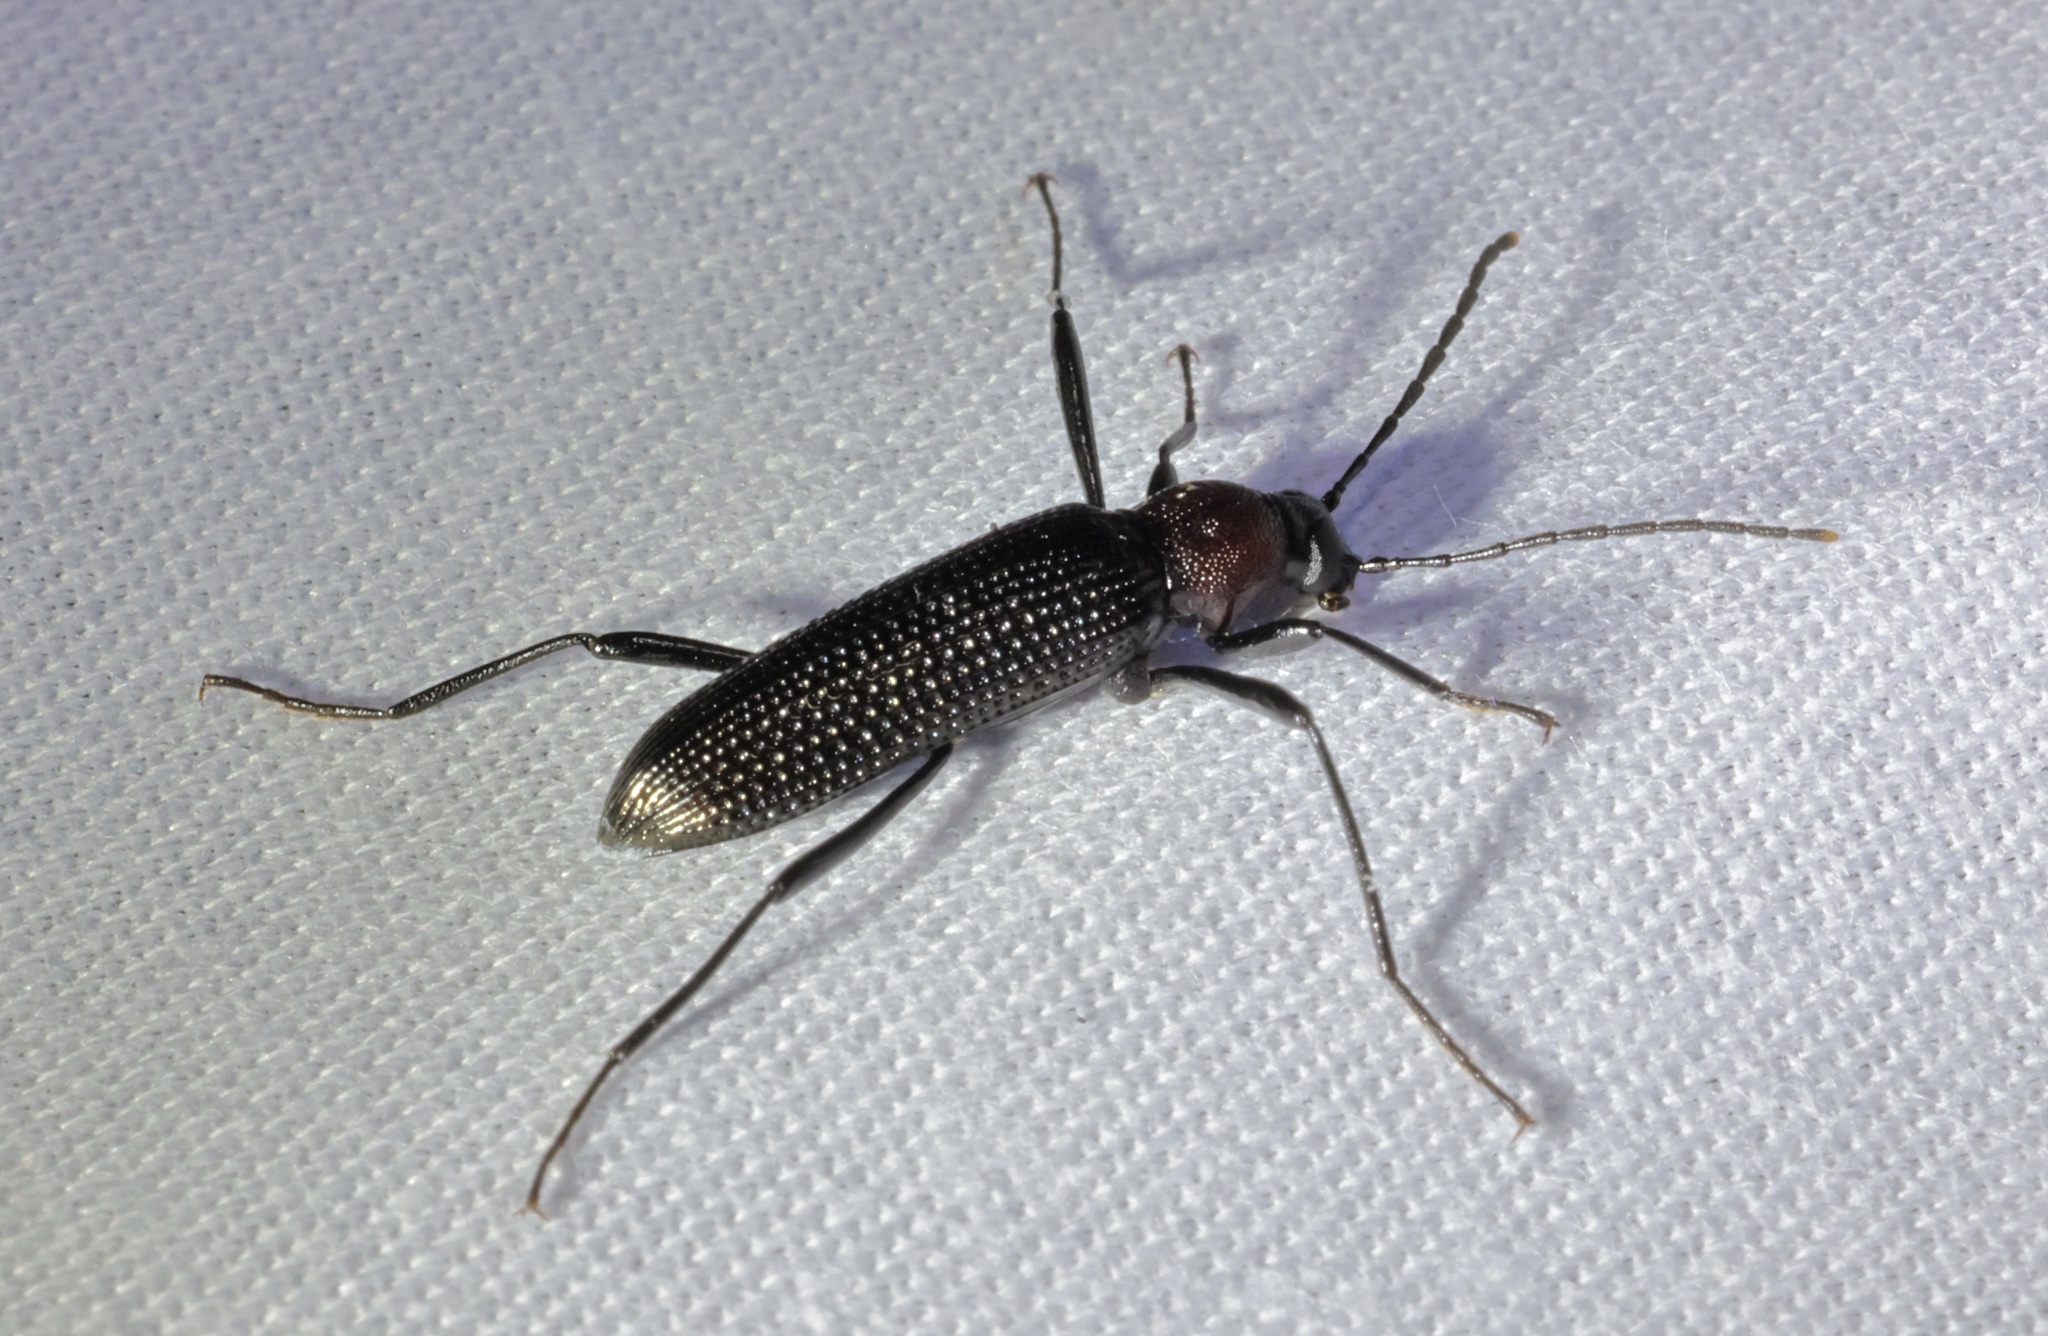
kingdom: Animalia
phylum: Arthropoda
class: Insecta
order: Coleoptera
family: Tenebrionidae
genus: Strongylium
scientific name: Strongylium
